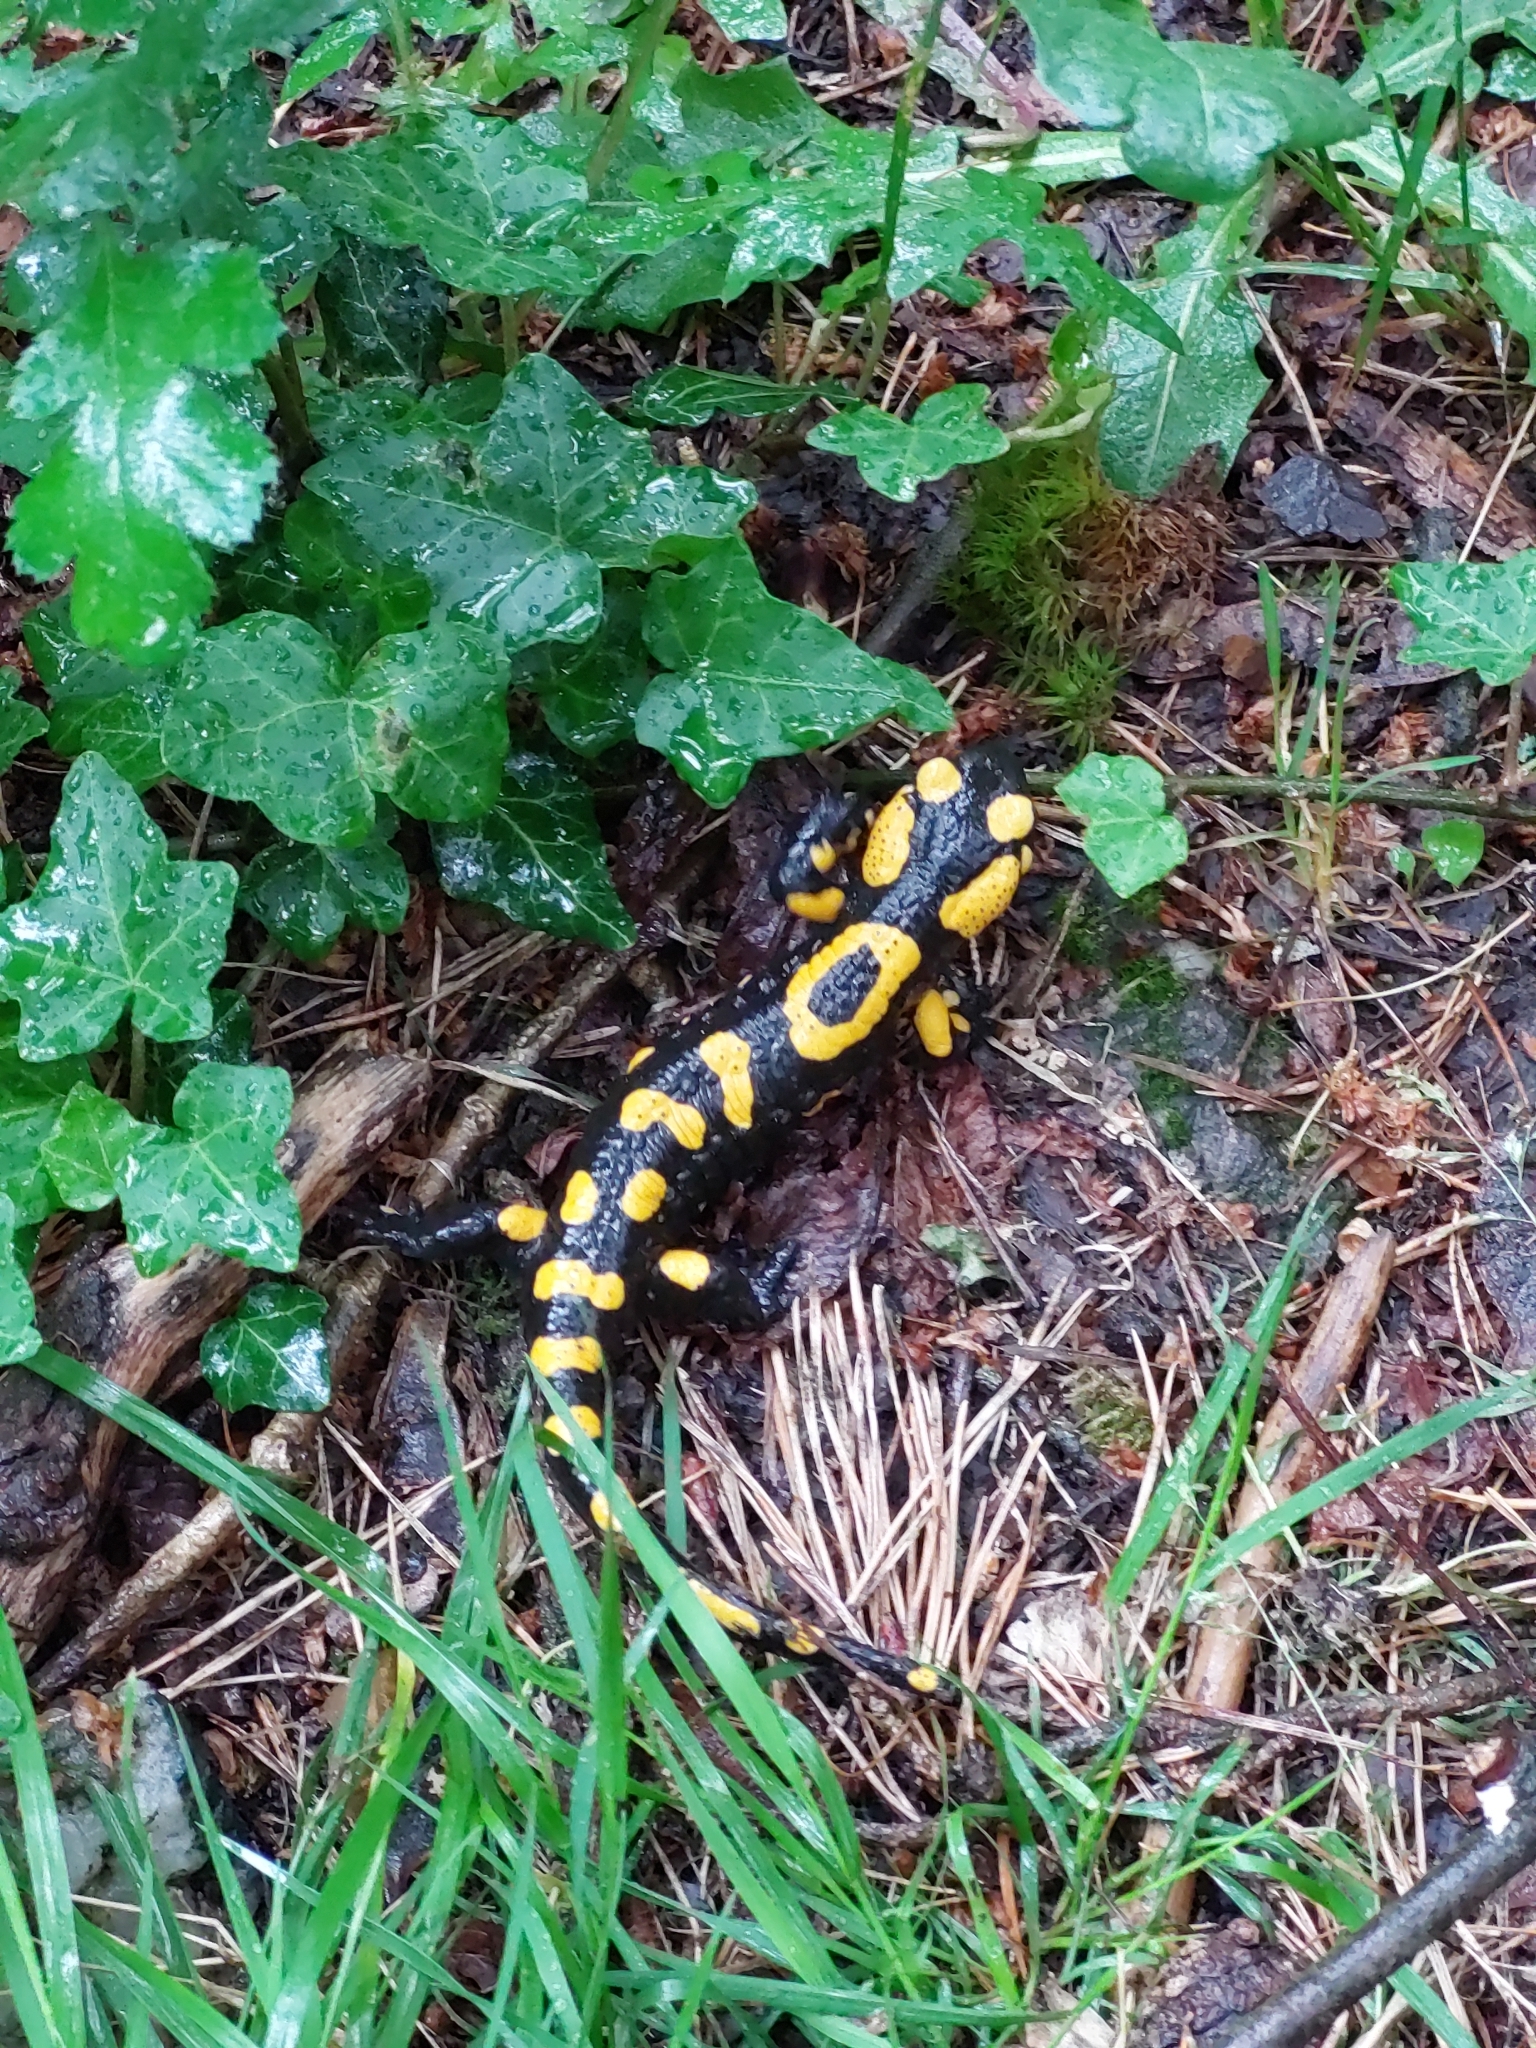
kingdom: Animalia
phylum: Chordata
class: Amphibia
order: Caudata
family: Salamandridae
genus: Salamandra
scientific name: Salamandra salamandra
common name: Fire salamander
